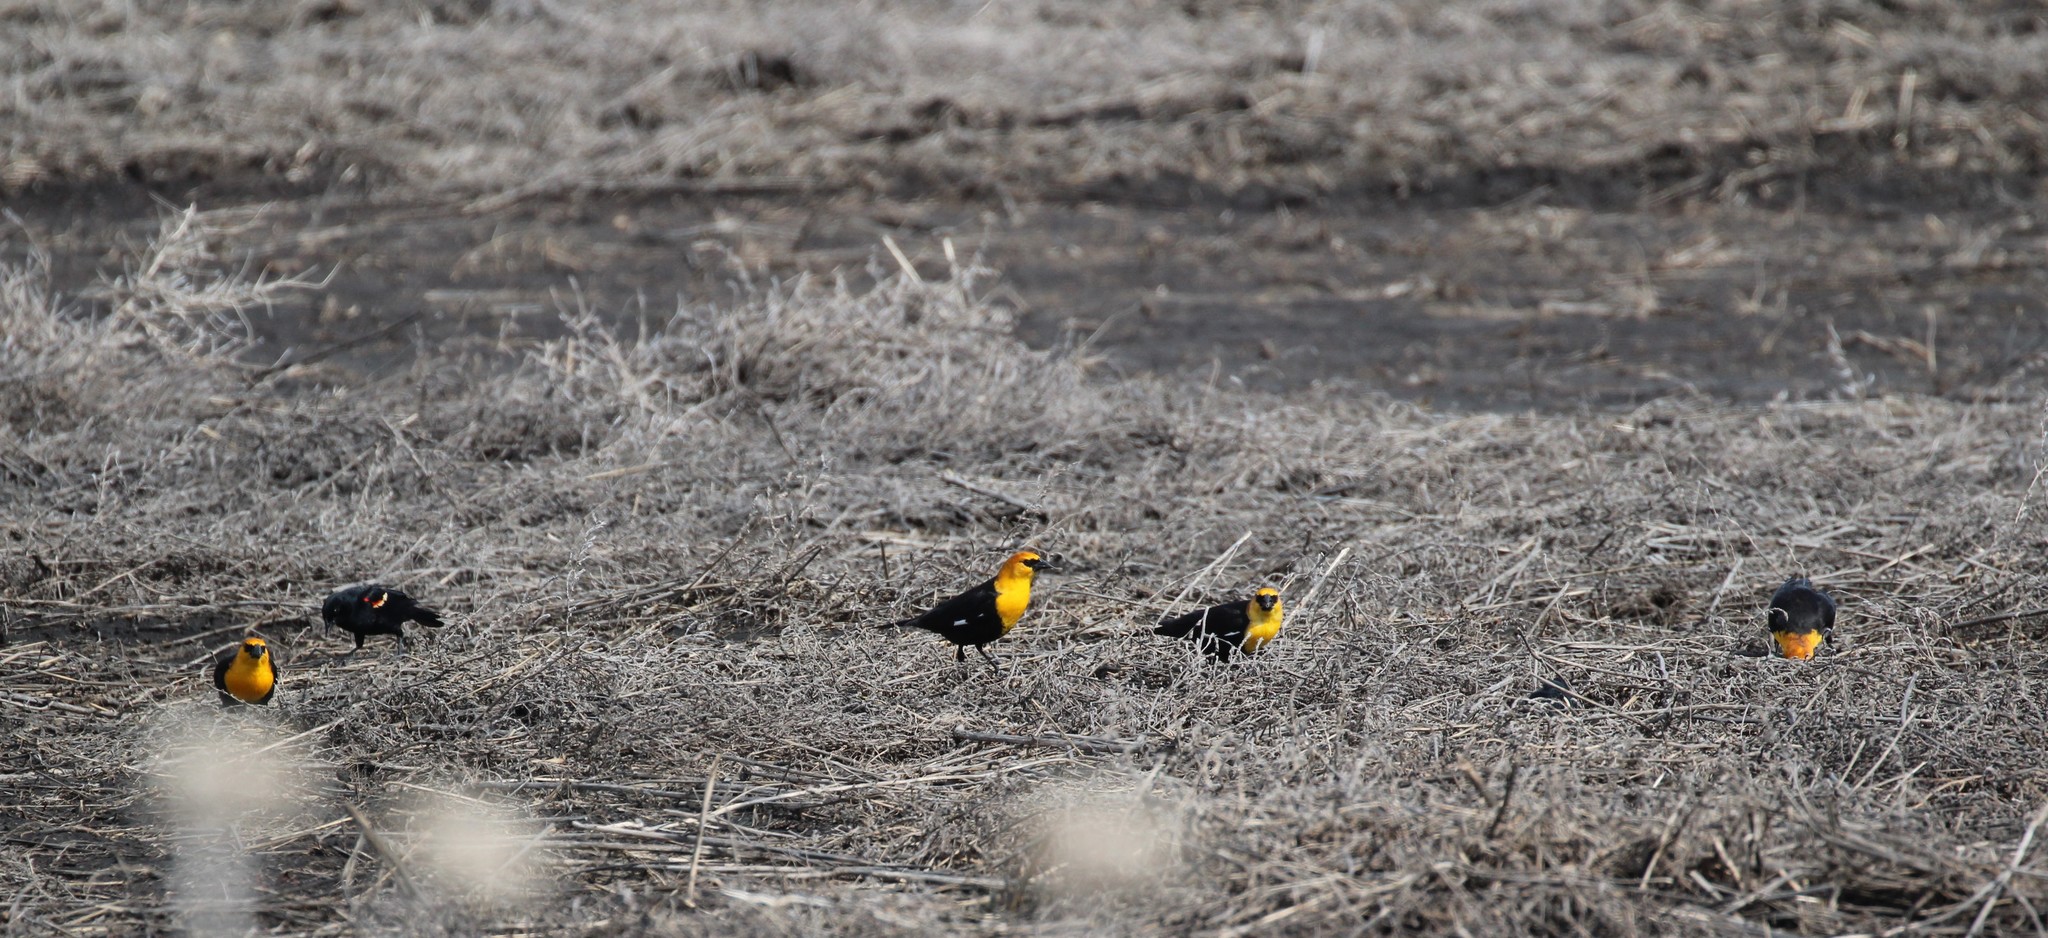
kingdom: Animalia
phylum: Chordata
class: Aves
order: Passeriformes
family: Icteridae
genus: Xanthocephalus
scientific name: Xanthocephalus xanthocephalus
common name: Yellow-headed blackbird
